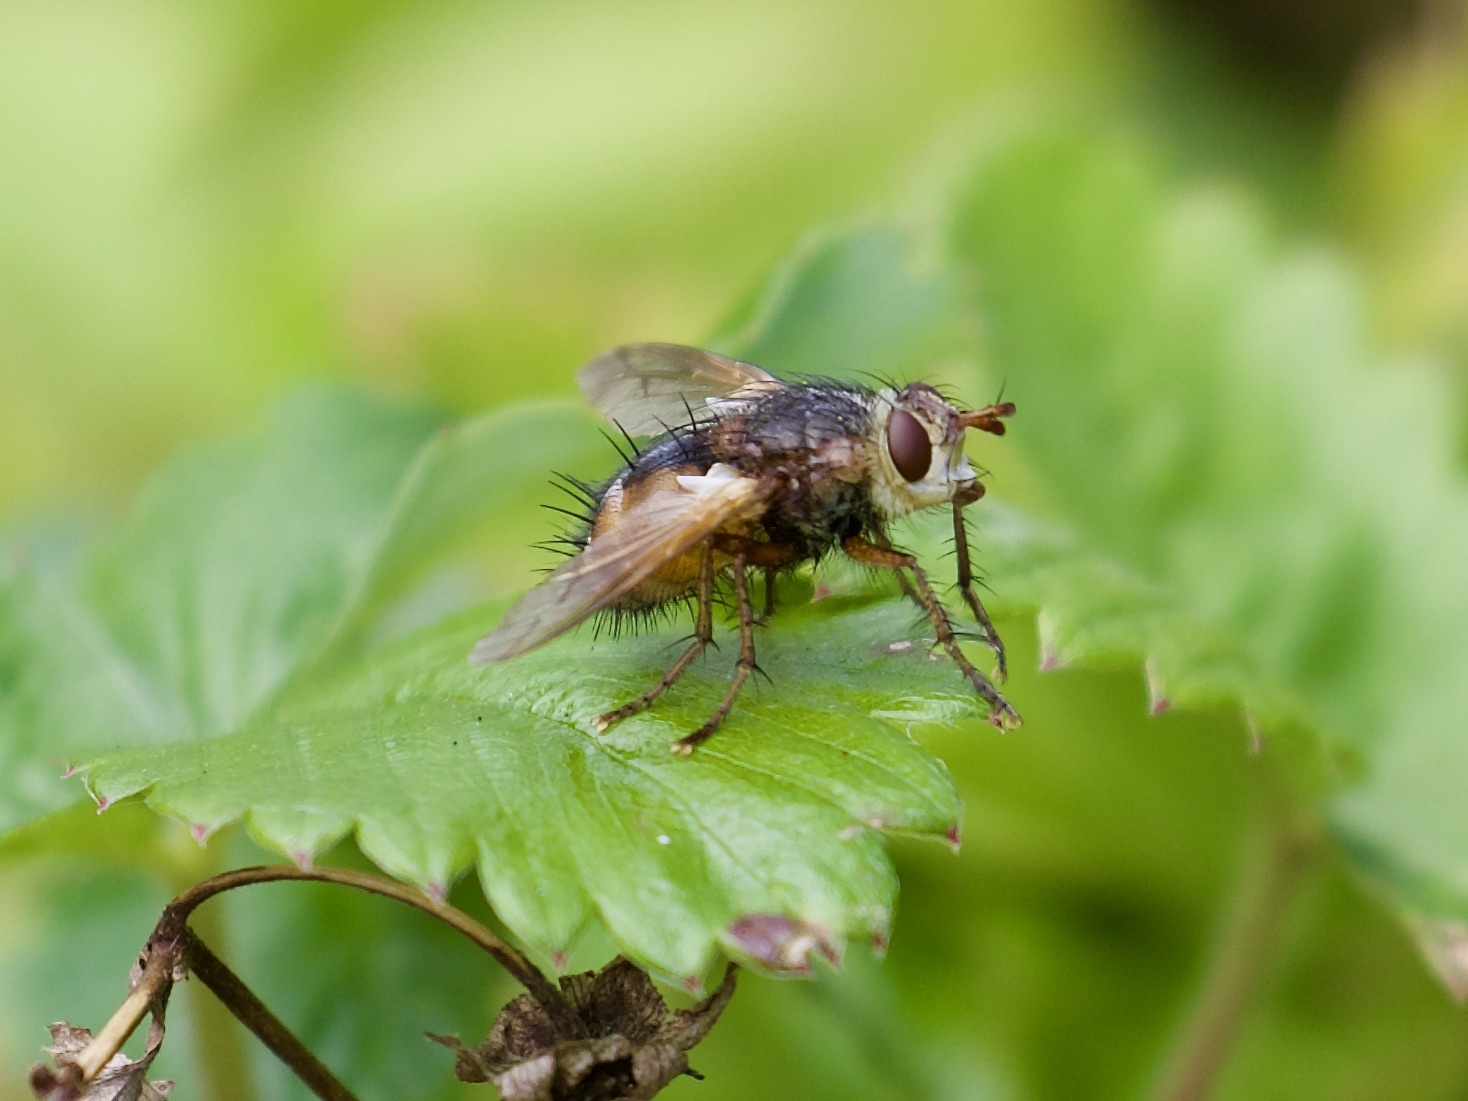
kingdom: Animalia
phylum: Arthropoda
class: Insecta
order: Diptera
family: Tachinidae
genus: Tachina
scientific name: Tachina fera
